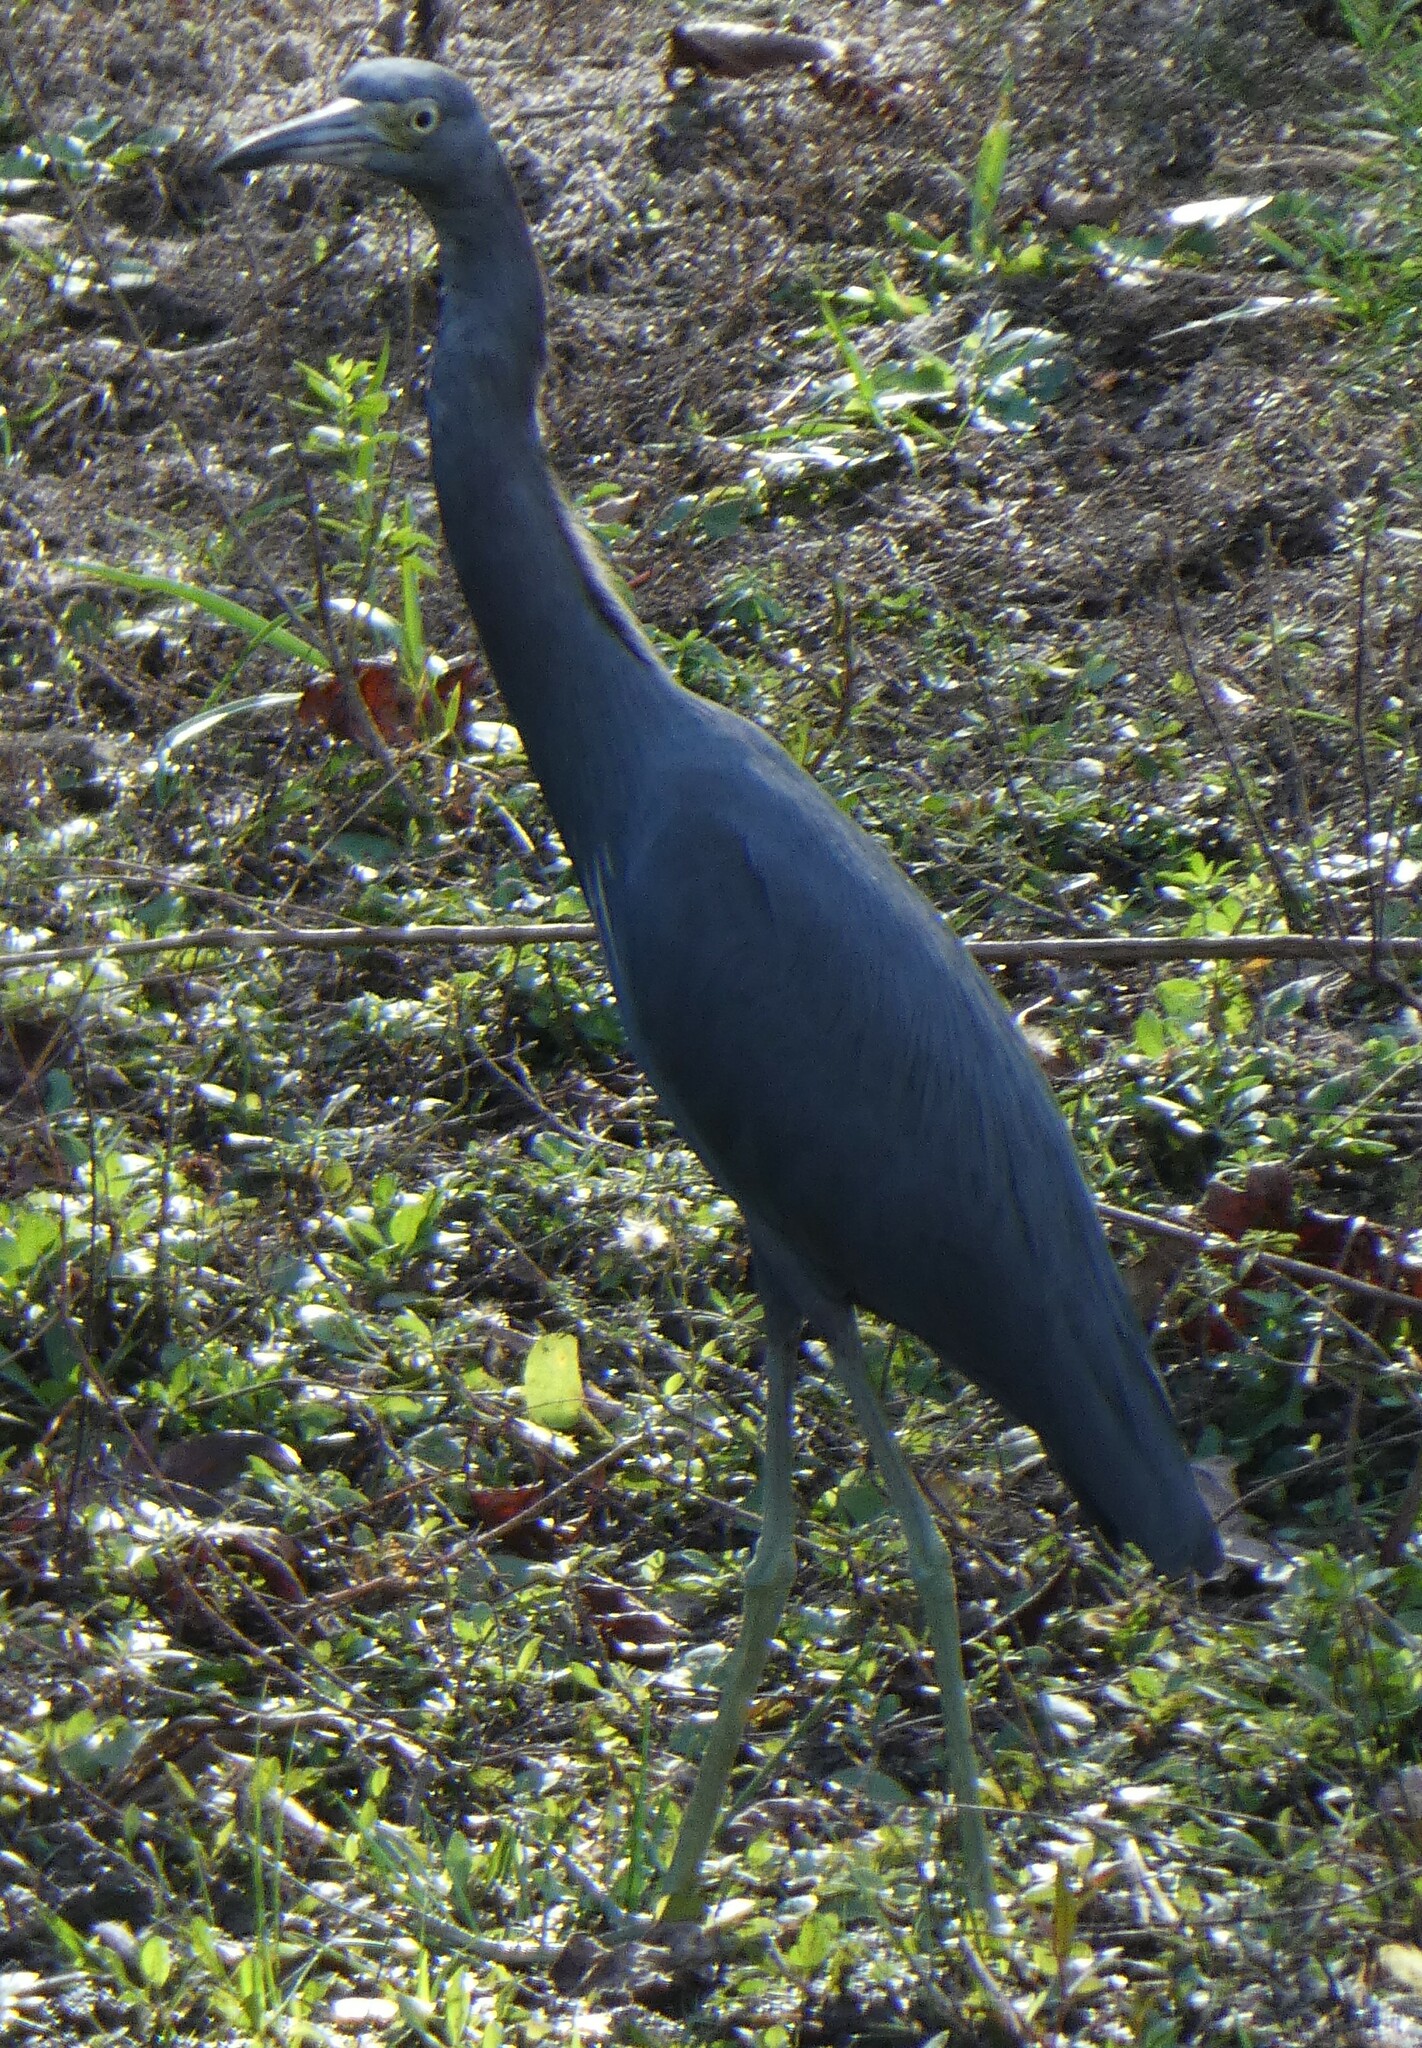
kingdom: Animalia
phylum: Chordata
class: Aves
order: Pelecaniformes
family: Ardeidae
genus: Egretta
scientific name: Egretta caerulea
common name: Little blue heron
